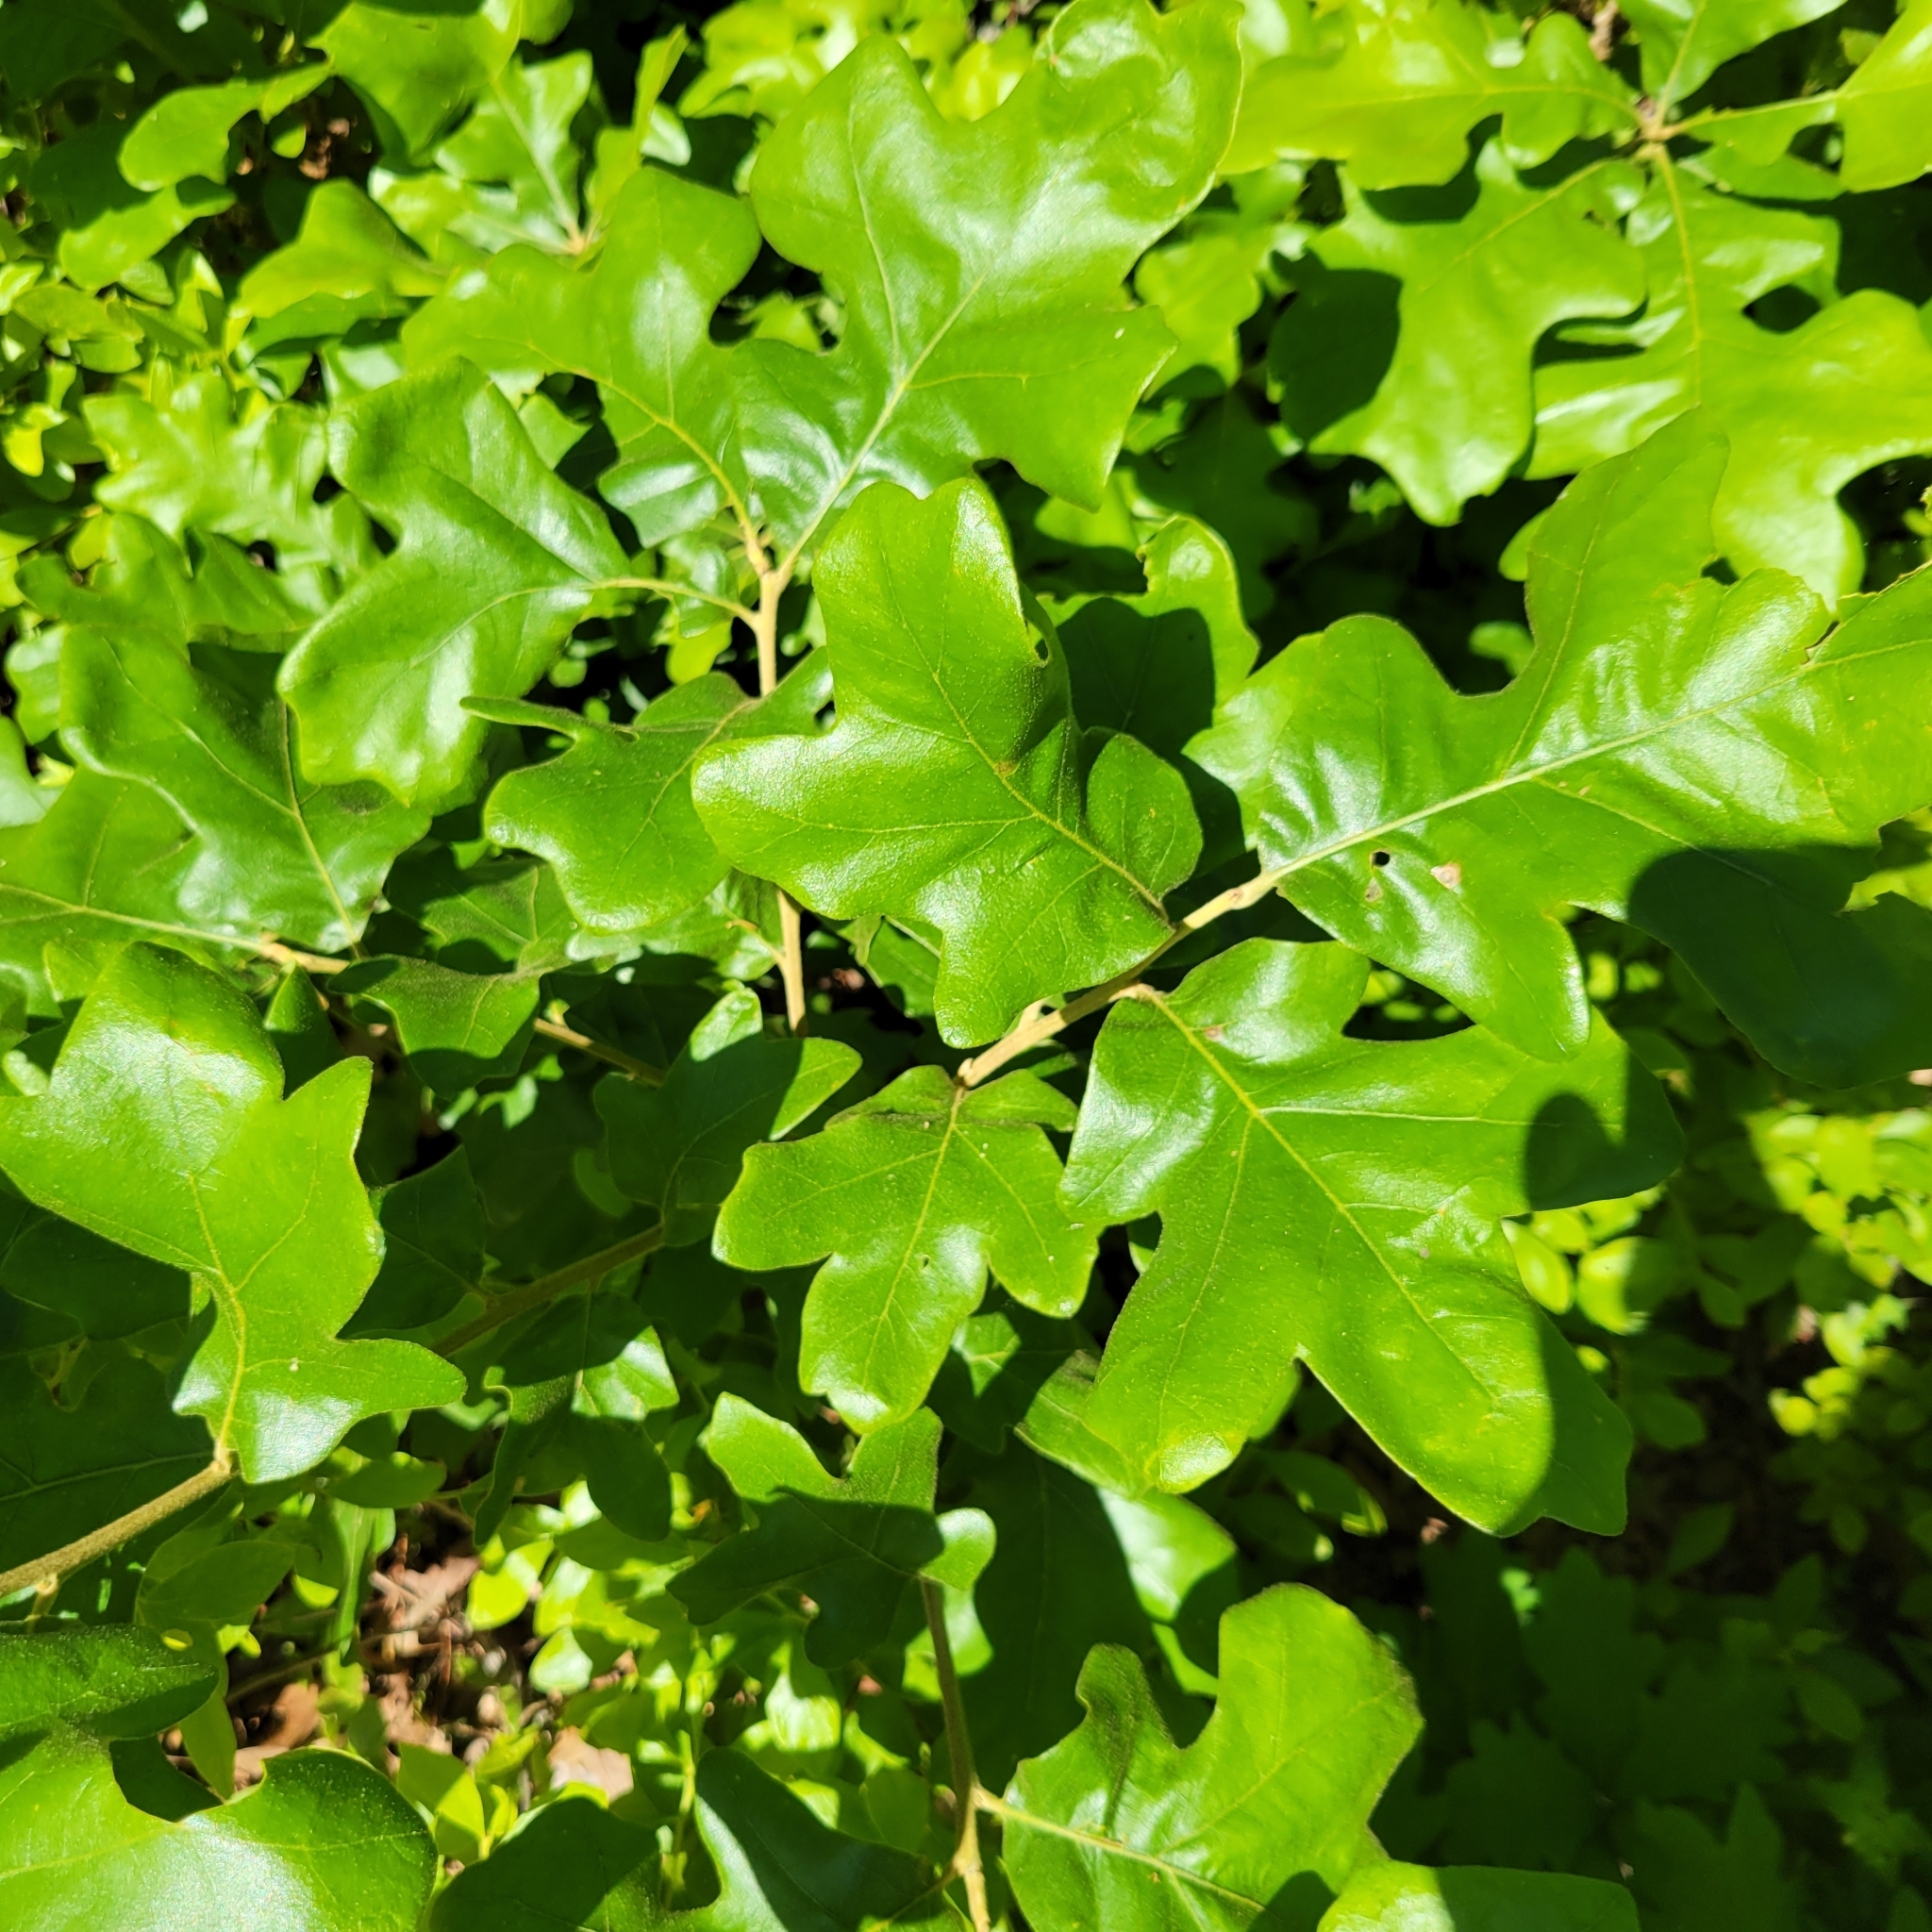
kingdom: Plantae
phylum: Tracheophyta
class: Magnoliopsida
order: Fagales
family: Fagaceae
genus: Quercus
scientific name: Quercus stellata
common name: Post oak
